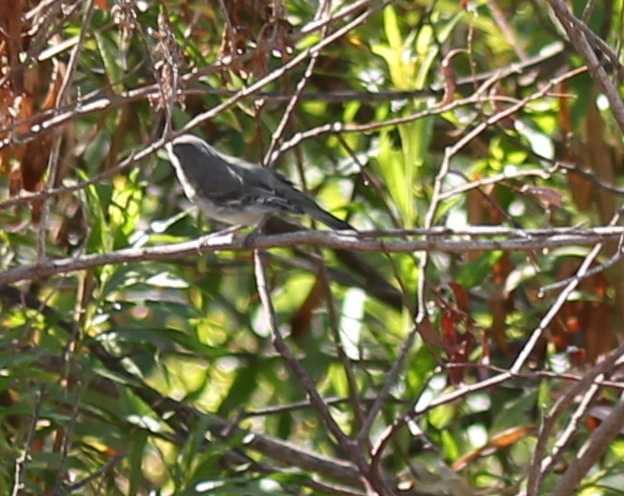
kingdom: Animalia
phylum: Chordata
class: Aves
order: Passeriformes
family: Vireonidae
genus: Vireo
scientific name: Vireo bellii
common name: Bell's vireo
